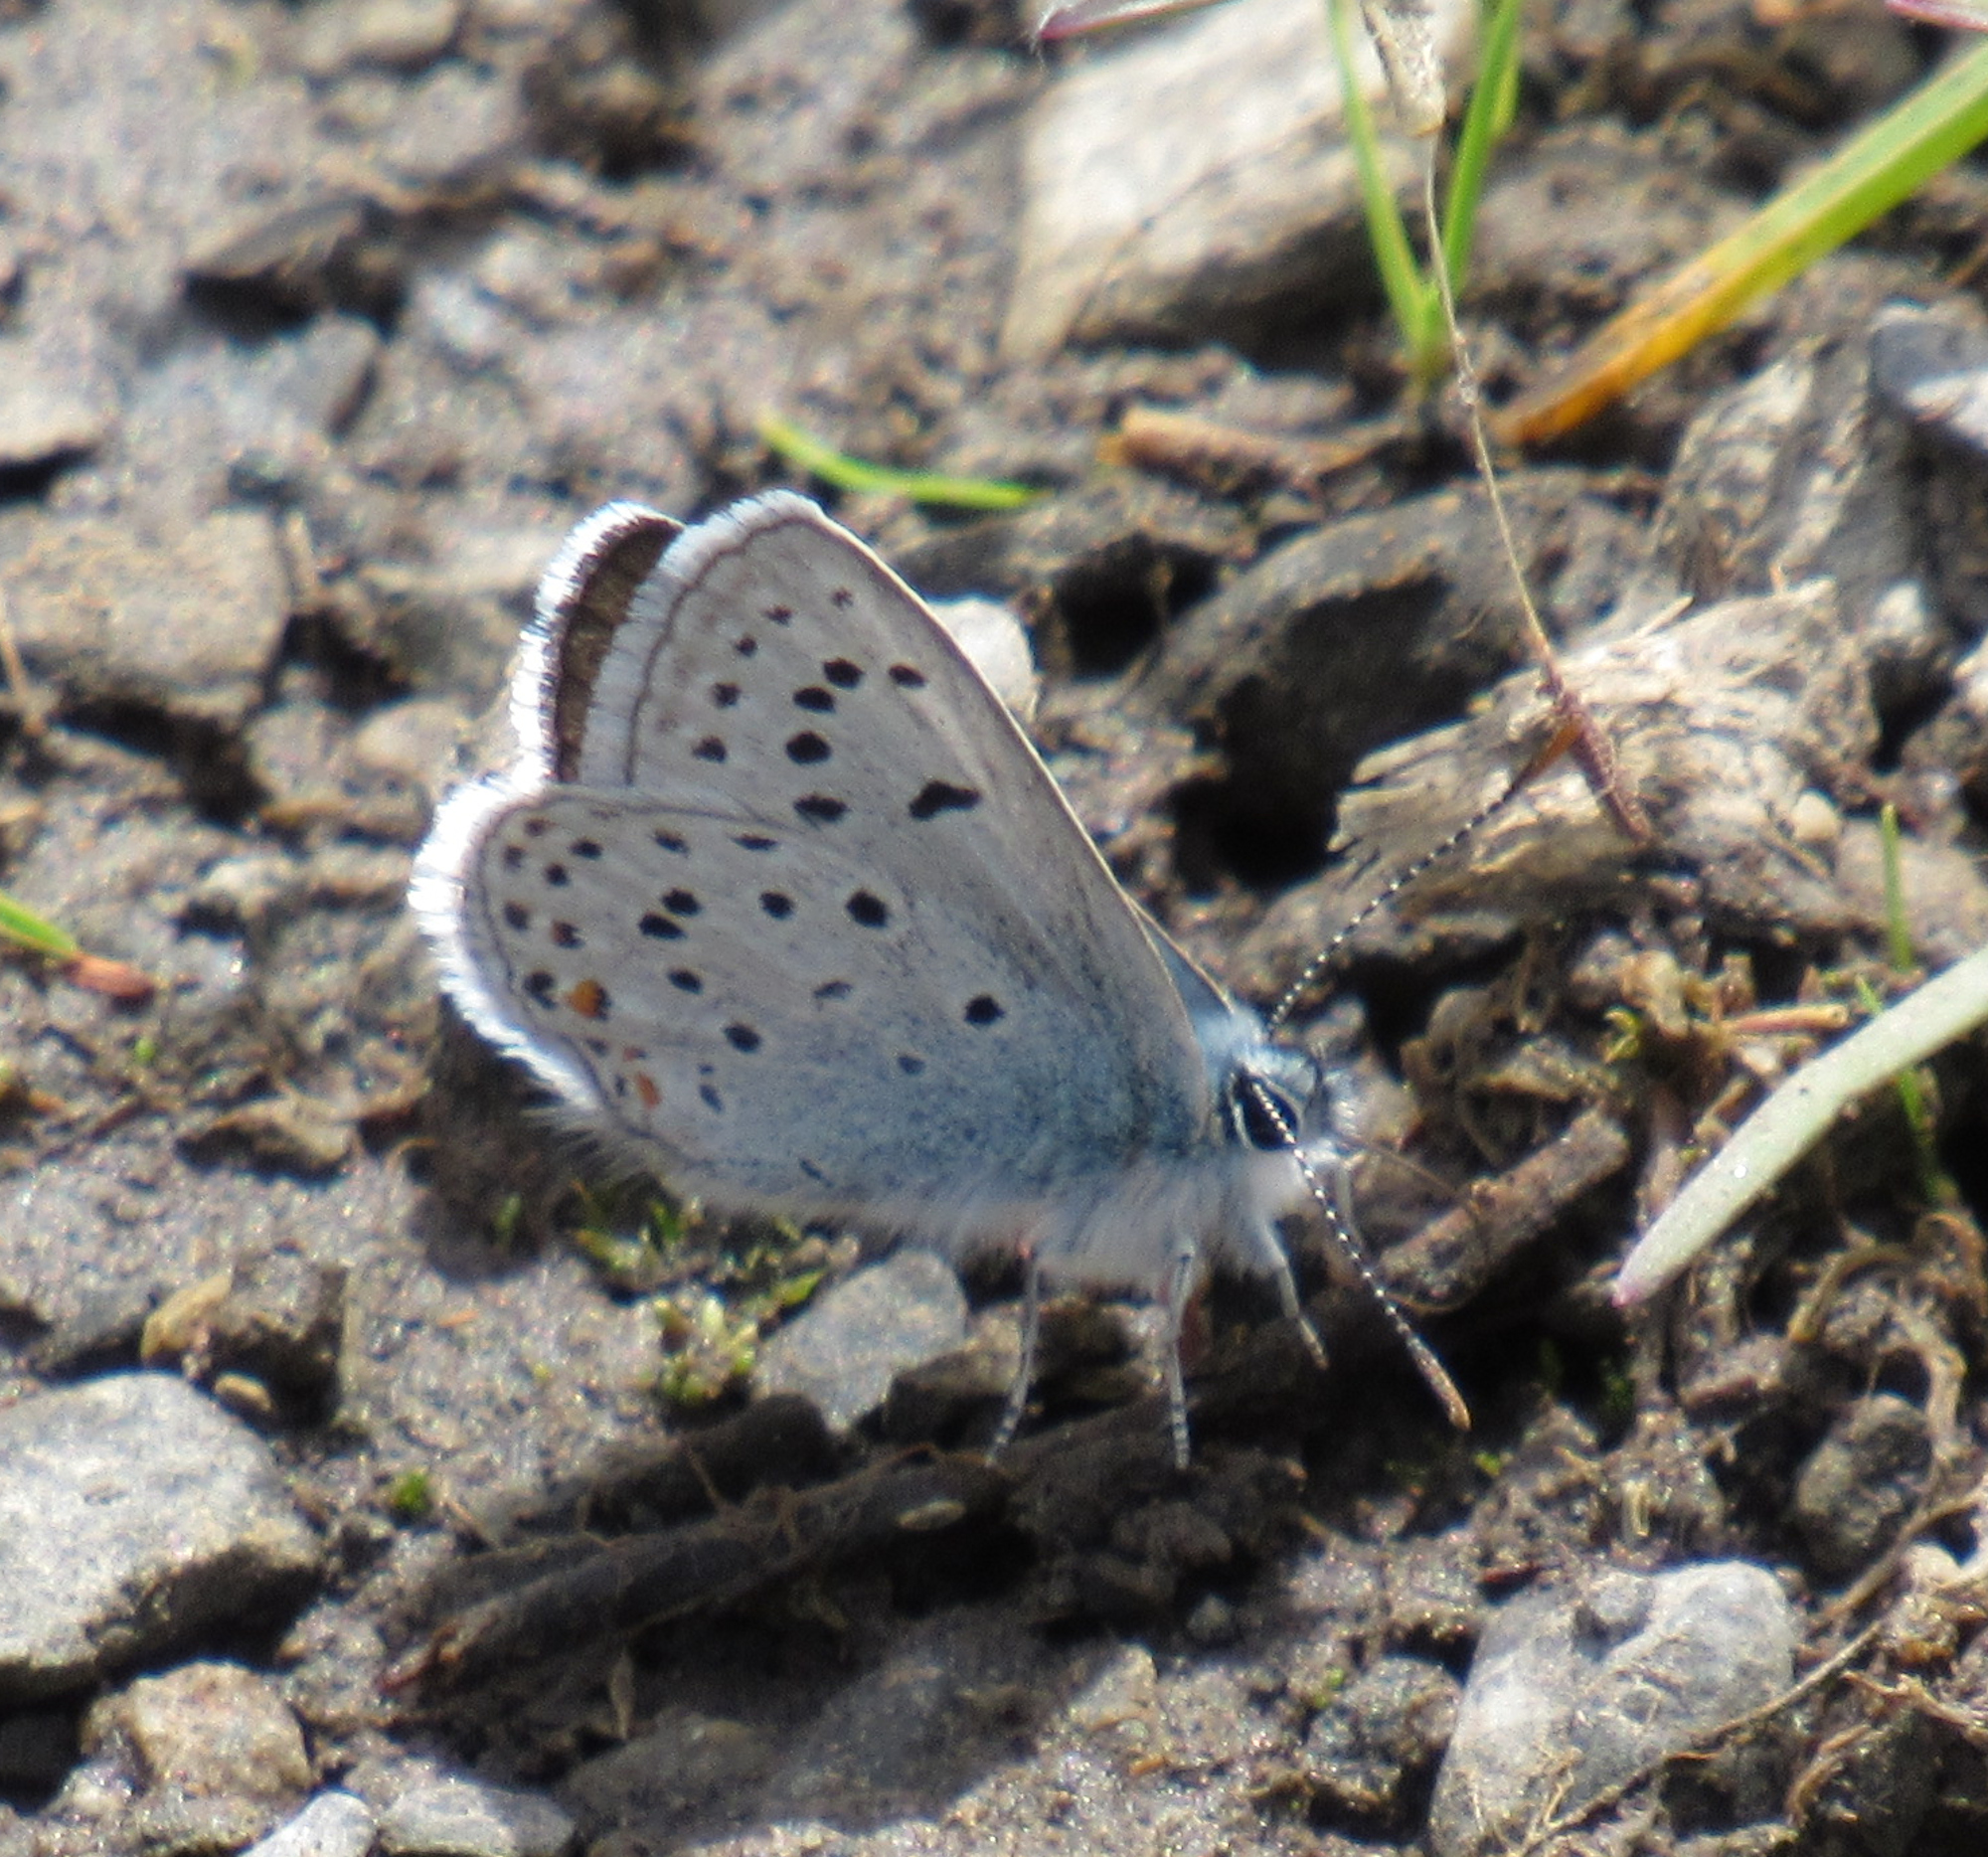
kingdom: Animalia
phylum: Arthropoda
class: Insecta
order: Lepidoptera
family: Lycaenidae
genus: Icaricia
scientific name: Icaricia saepiolus
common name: Greenish blue
